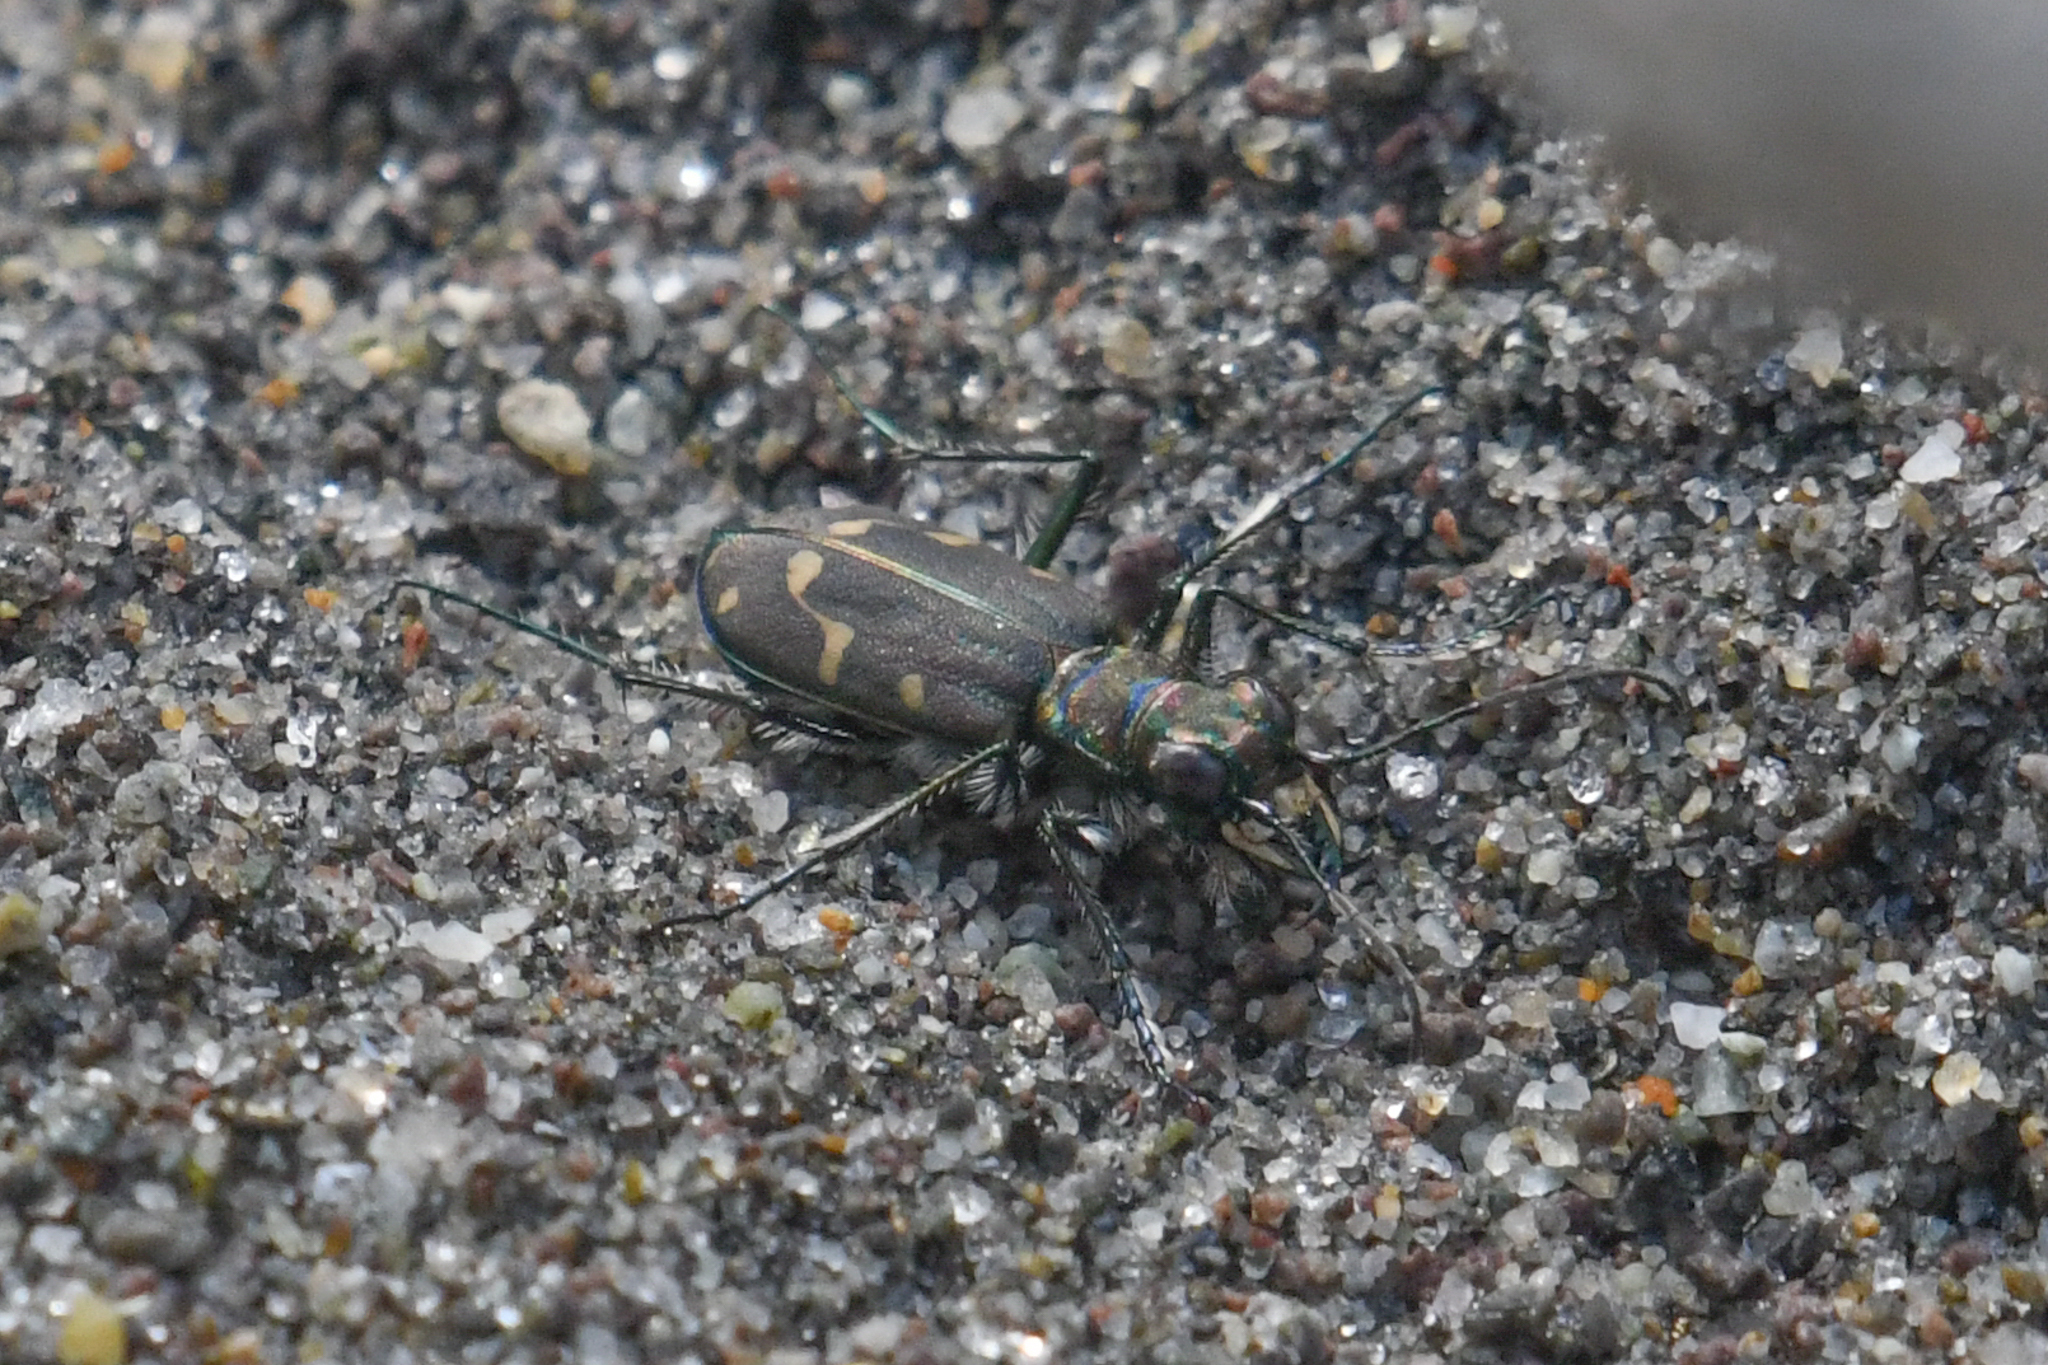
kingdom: Animalia
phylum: Arthropoda
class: Insecta
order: Coleoptera
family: Carabidae
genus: Cicindela
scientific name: Cicindela oregona
